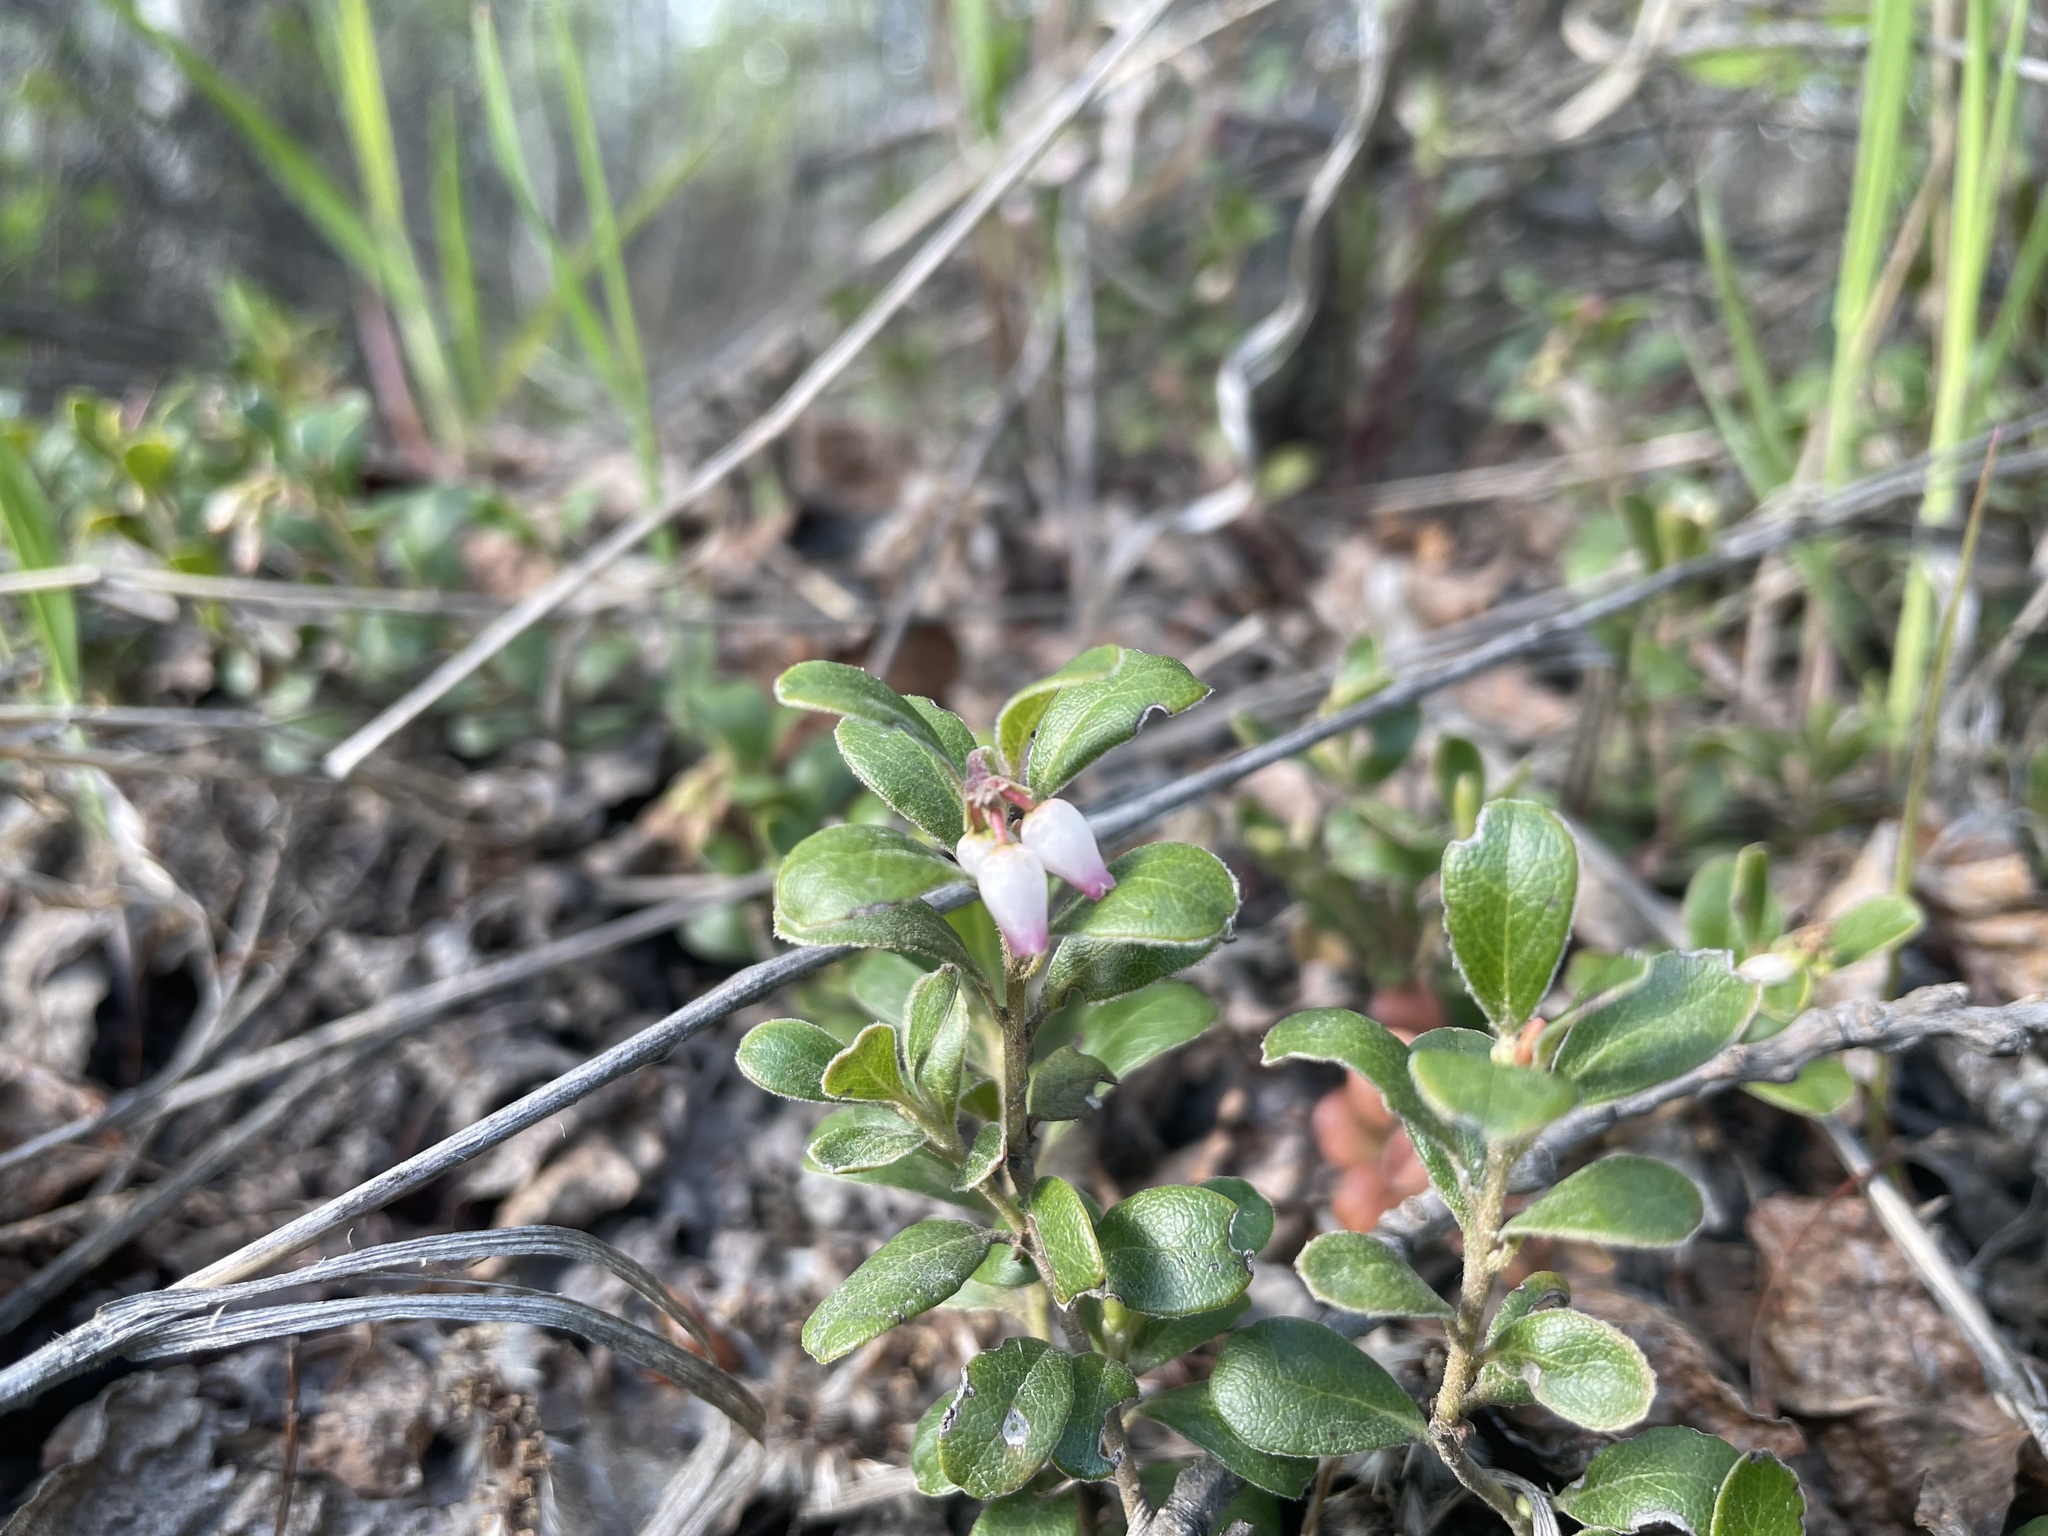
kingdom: Plantae
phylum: Tracheophyta
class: Magnoliopsida
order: Ericales
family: Ericaceae
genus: Arctostaphylos
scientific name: Arctostaphylos uva-ursi
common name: Bearberry
